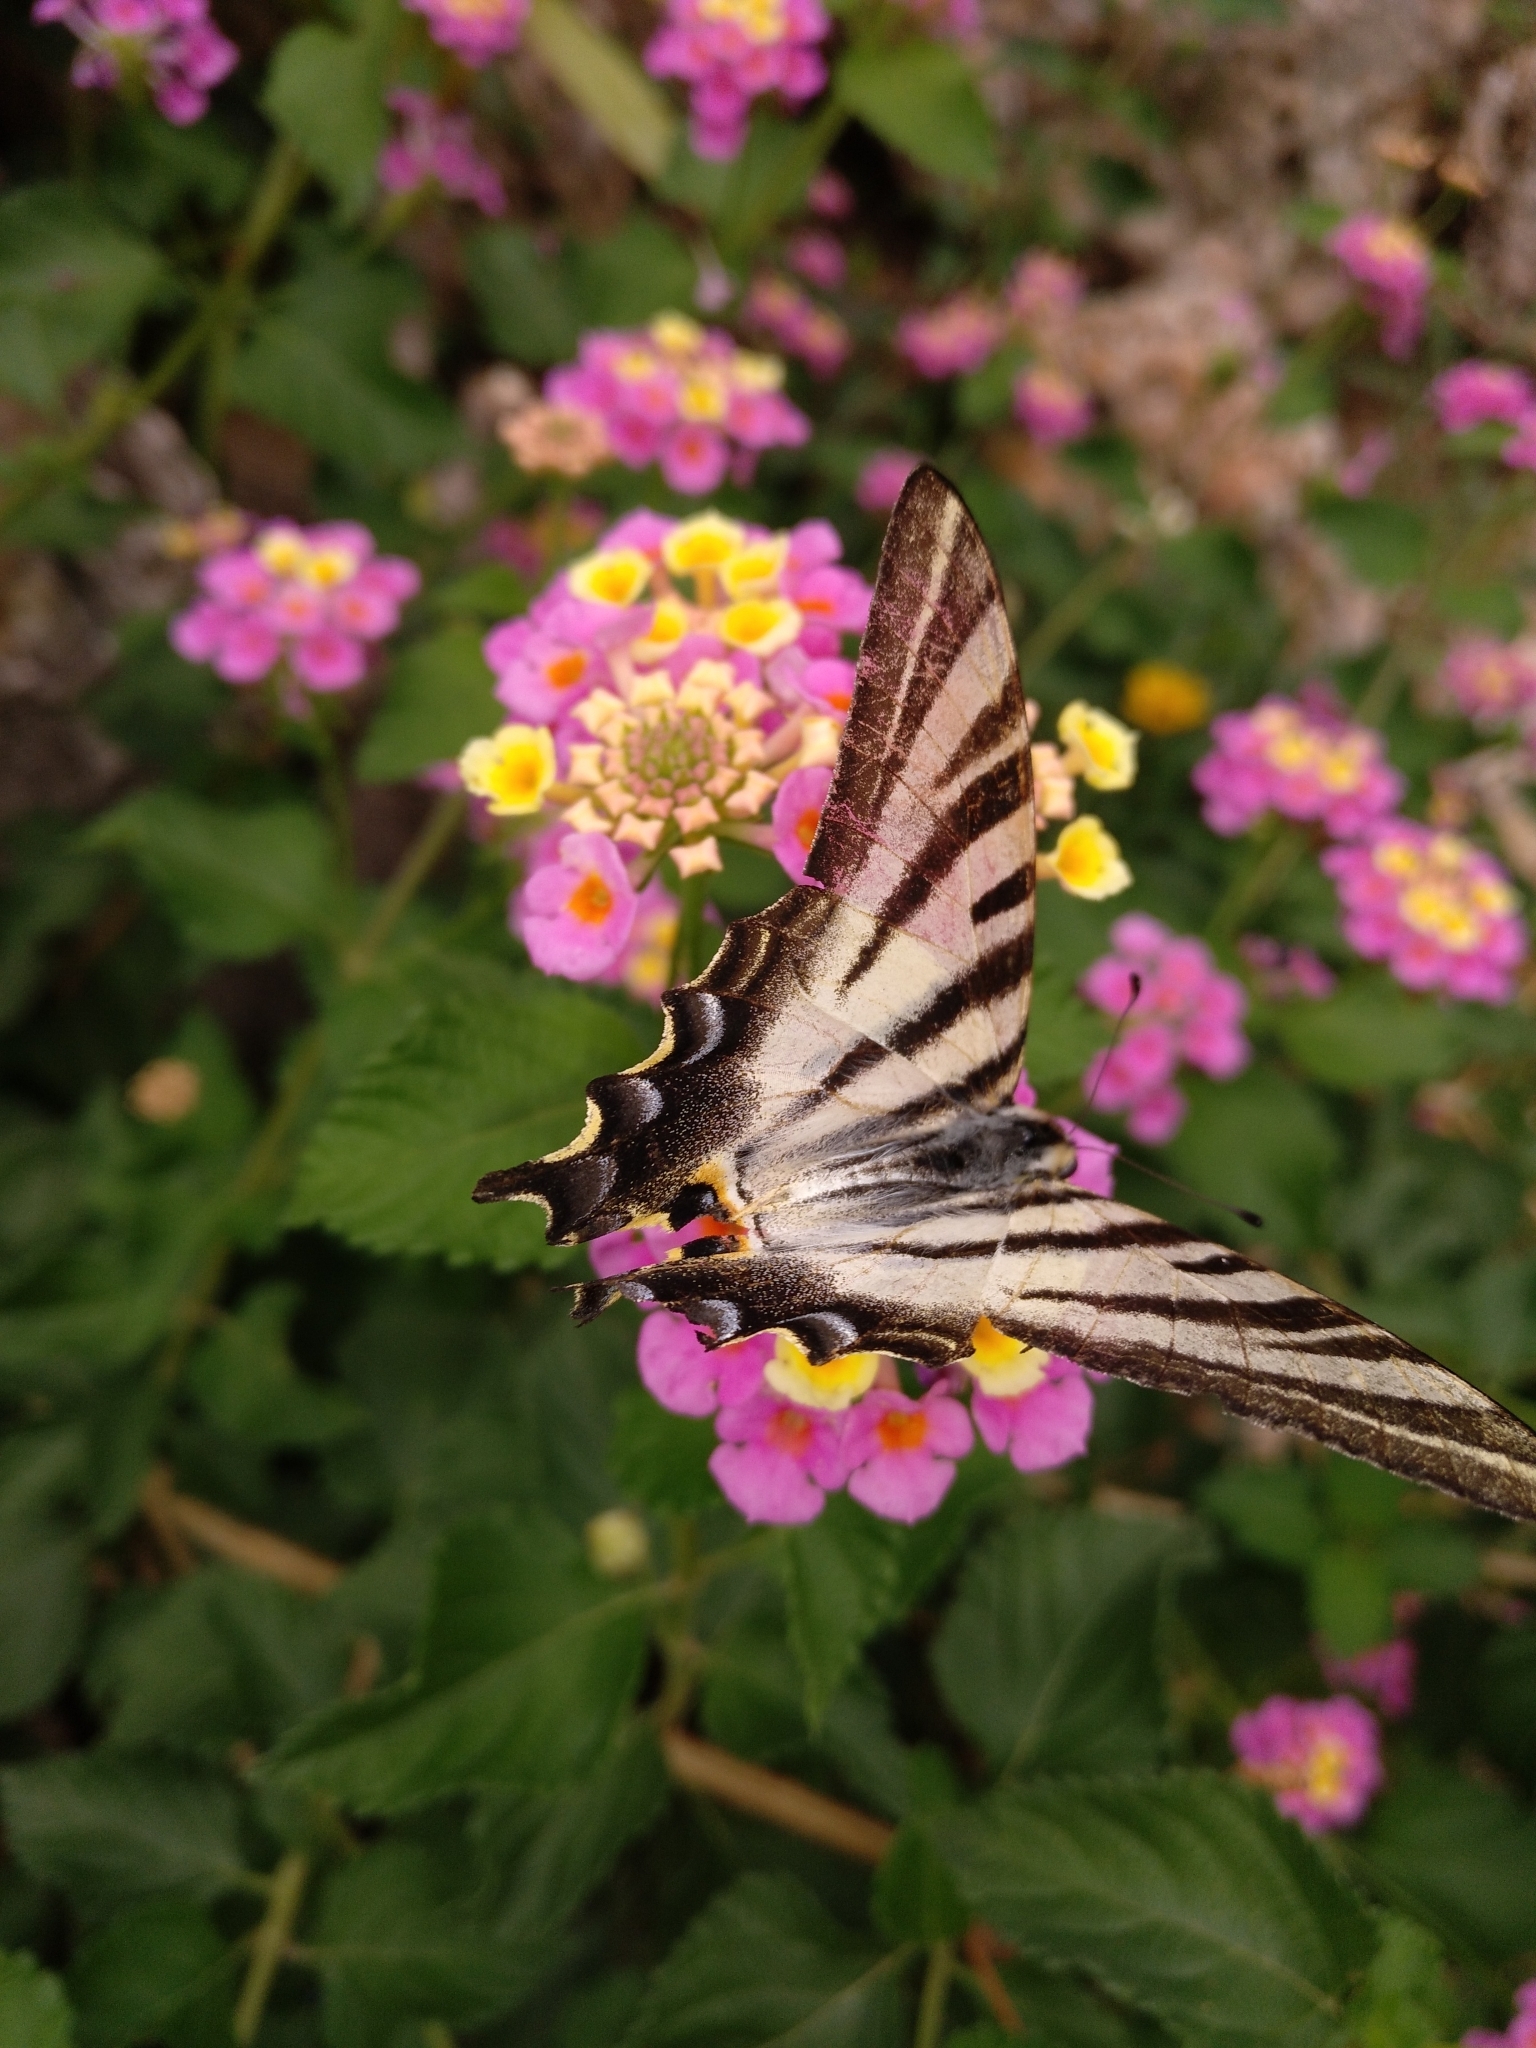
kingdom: Animalia
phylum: Arthropoda
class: Insecta
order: Lepidoptera
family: Papilionidae
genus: Iphiclides
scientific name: Iphiclides feisthamelii
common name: Iberian scarce swallowtail
